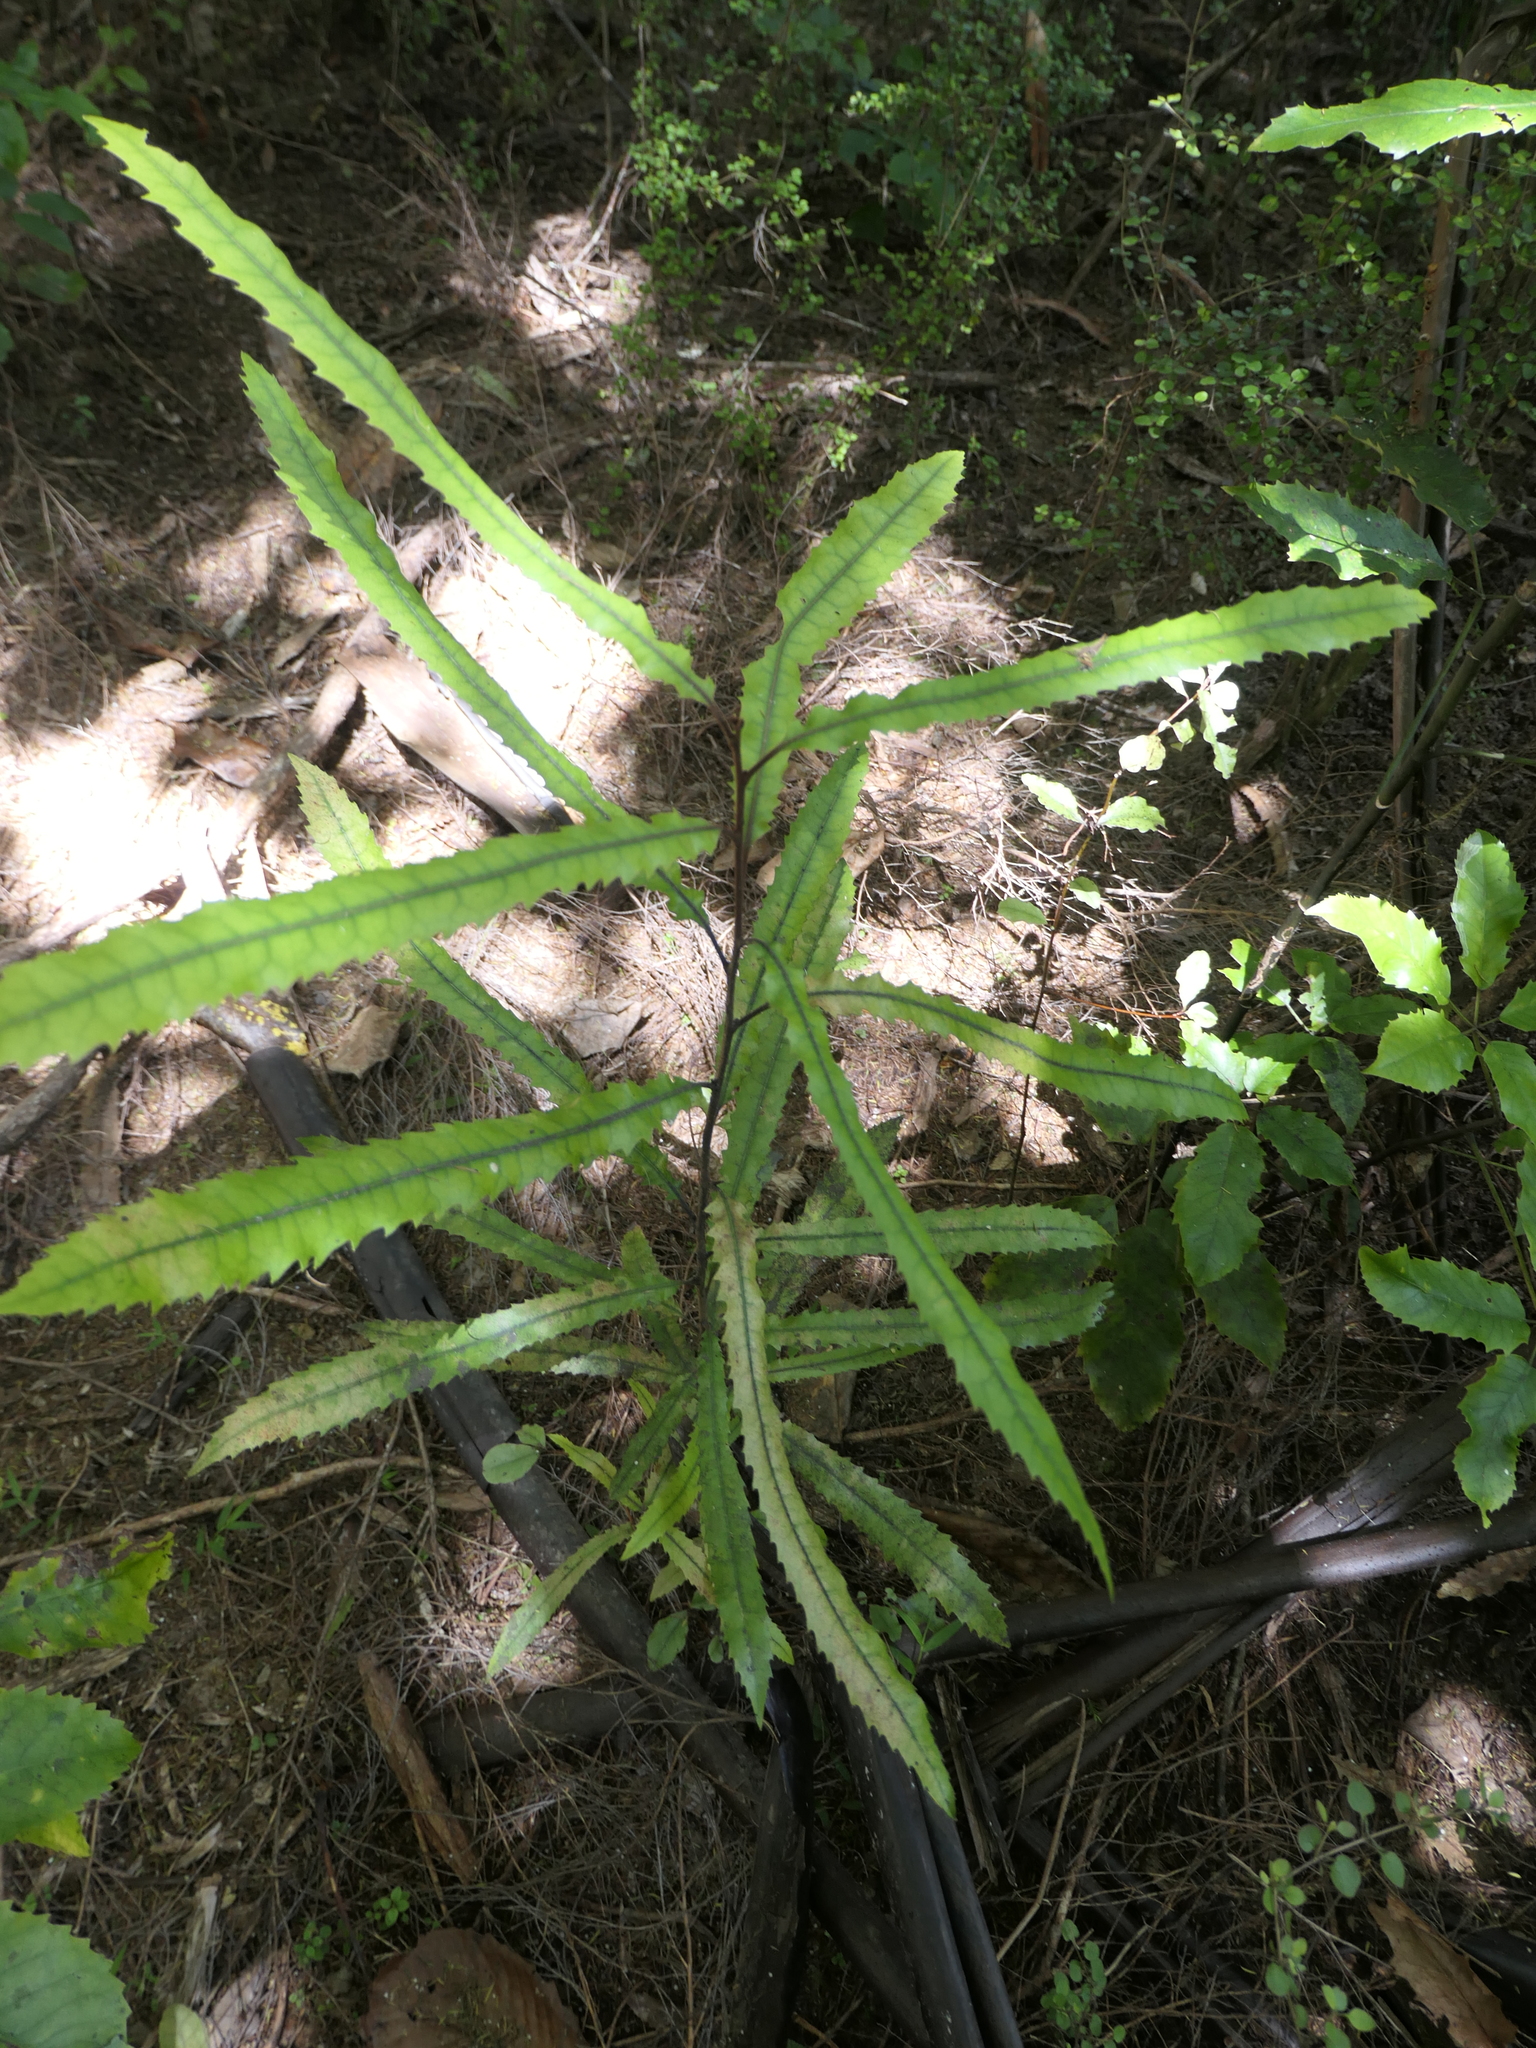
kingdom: Plantae
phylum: Tracheophyta
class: Magnoliopsida
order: Proteales
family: Proteaceae
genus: Knightia
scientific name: Knightia excelsa
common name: New zealand-honeysuckle
